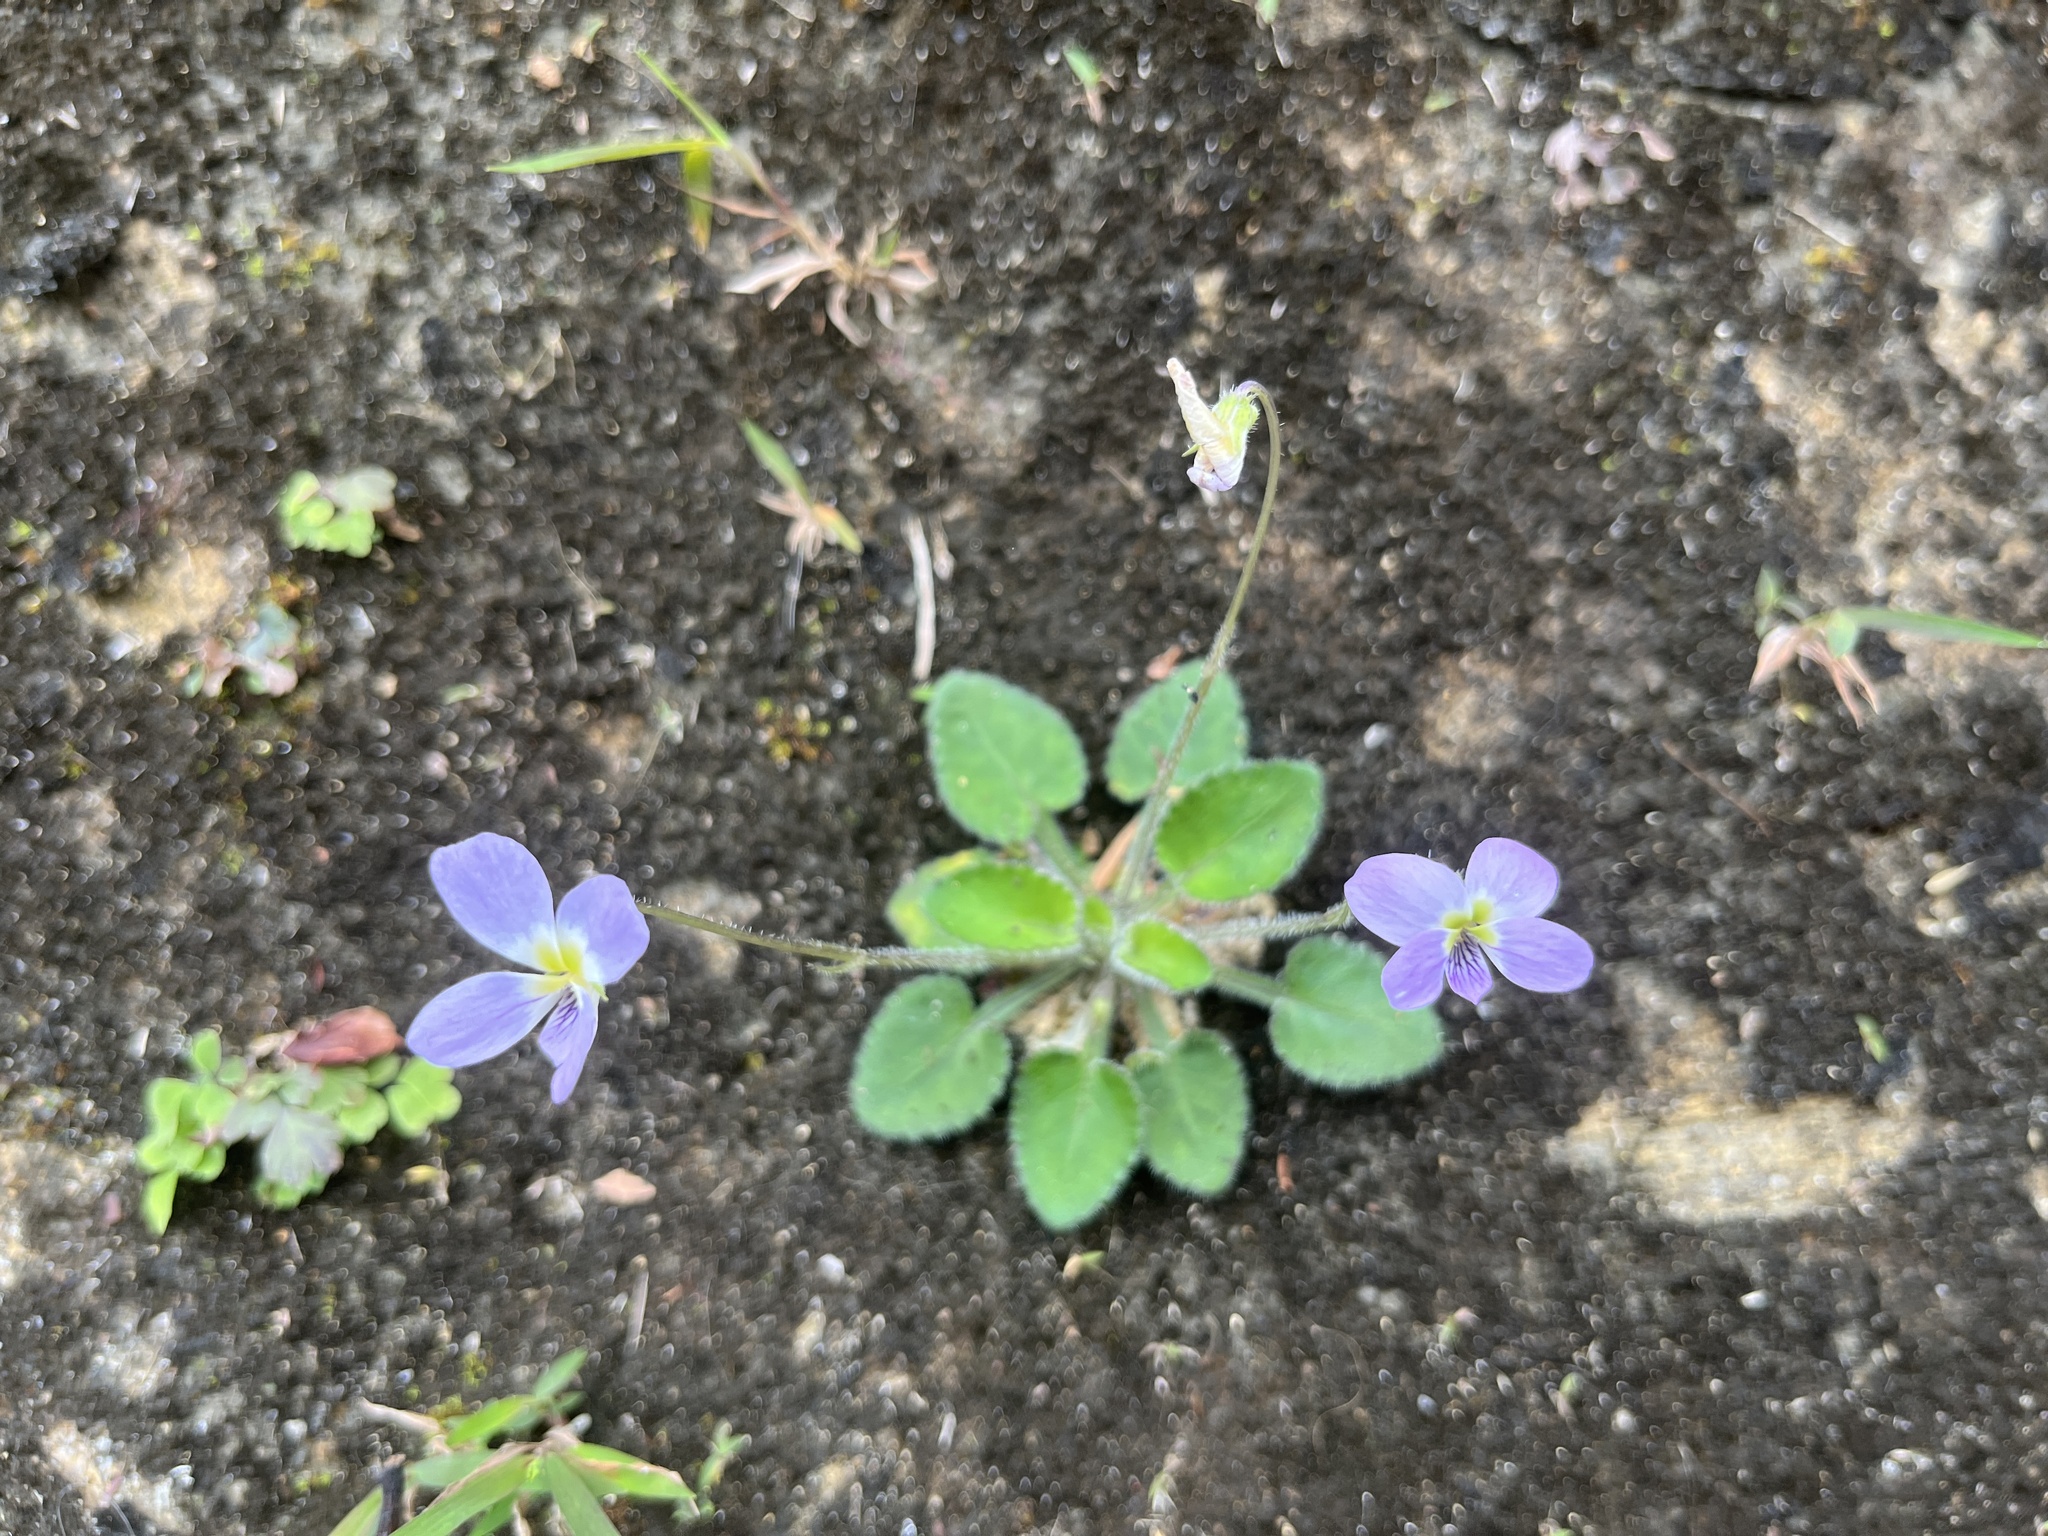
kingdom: Plantae
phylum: Tracheophyta
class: Magnoliopsida
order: Malpighiales
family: Violaceae
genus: Viola
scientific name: Viola diffusa
